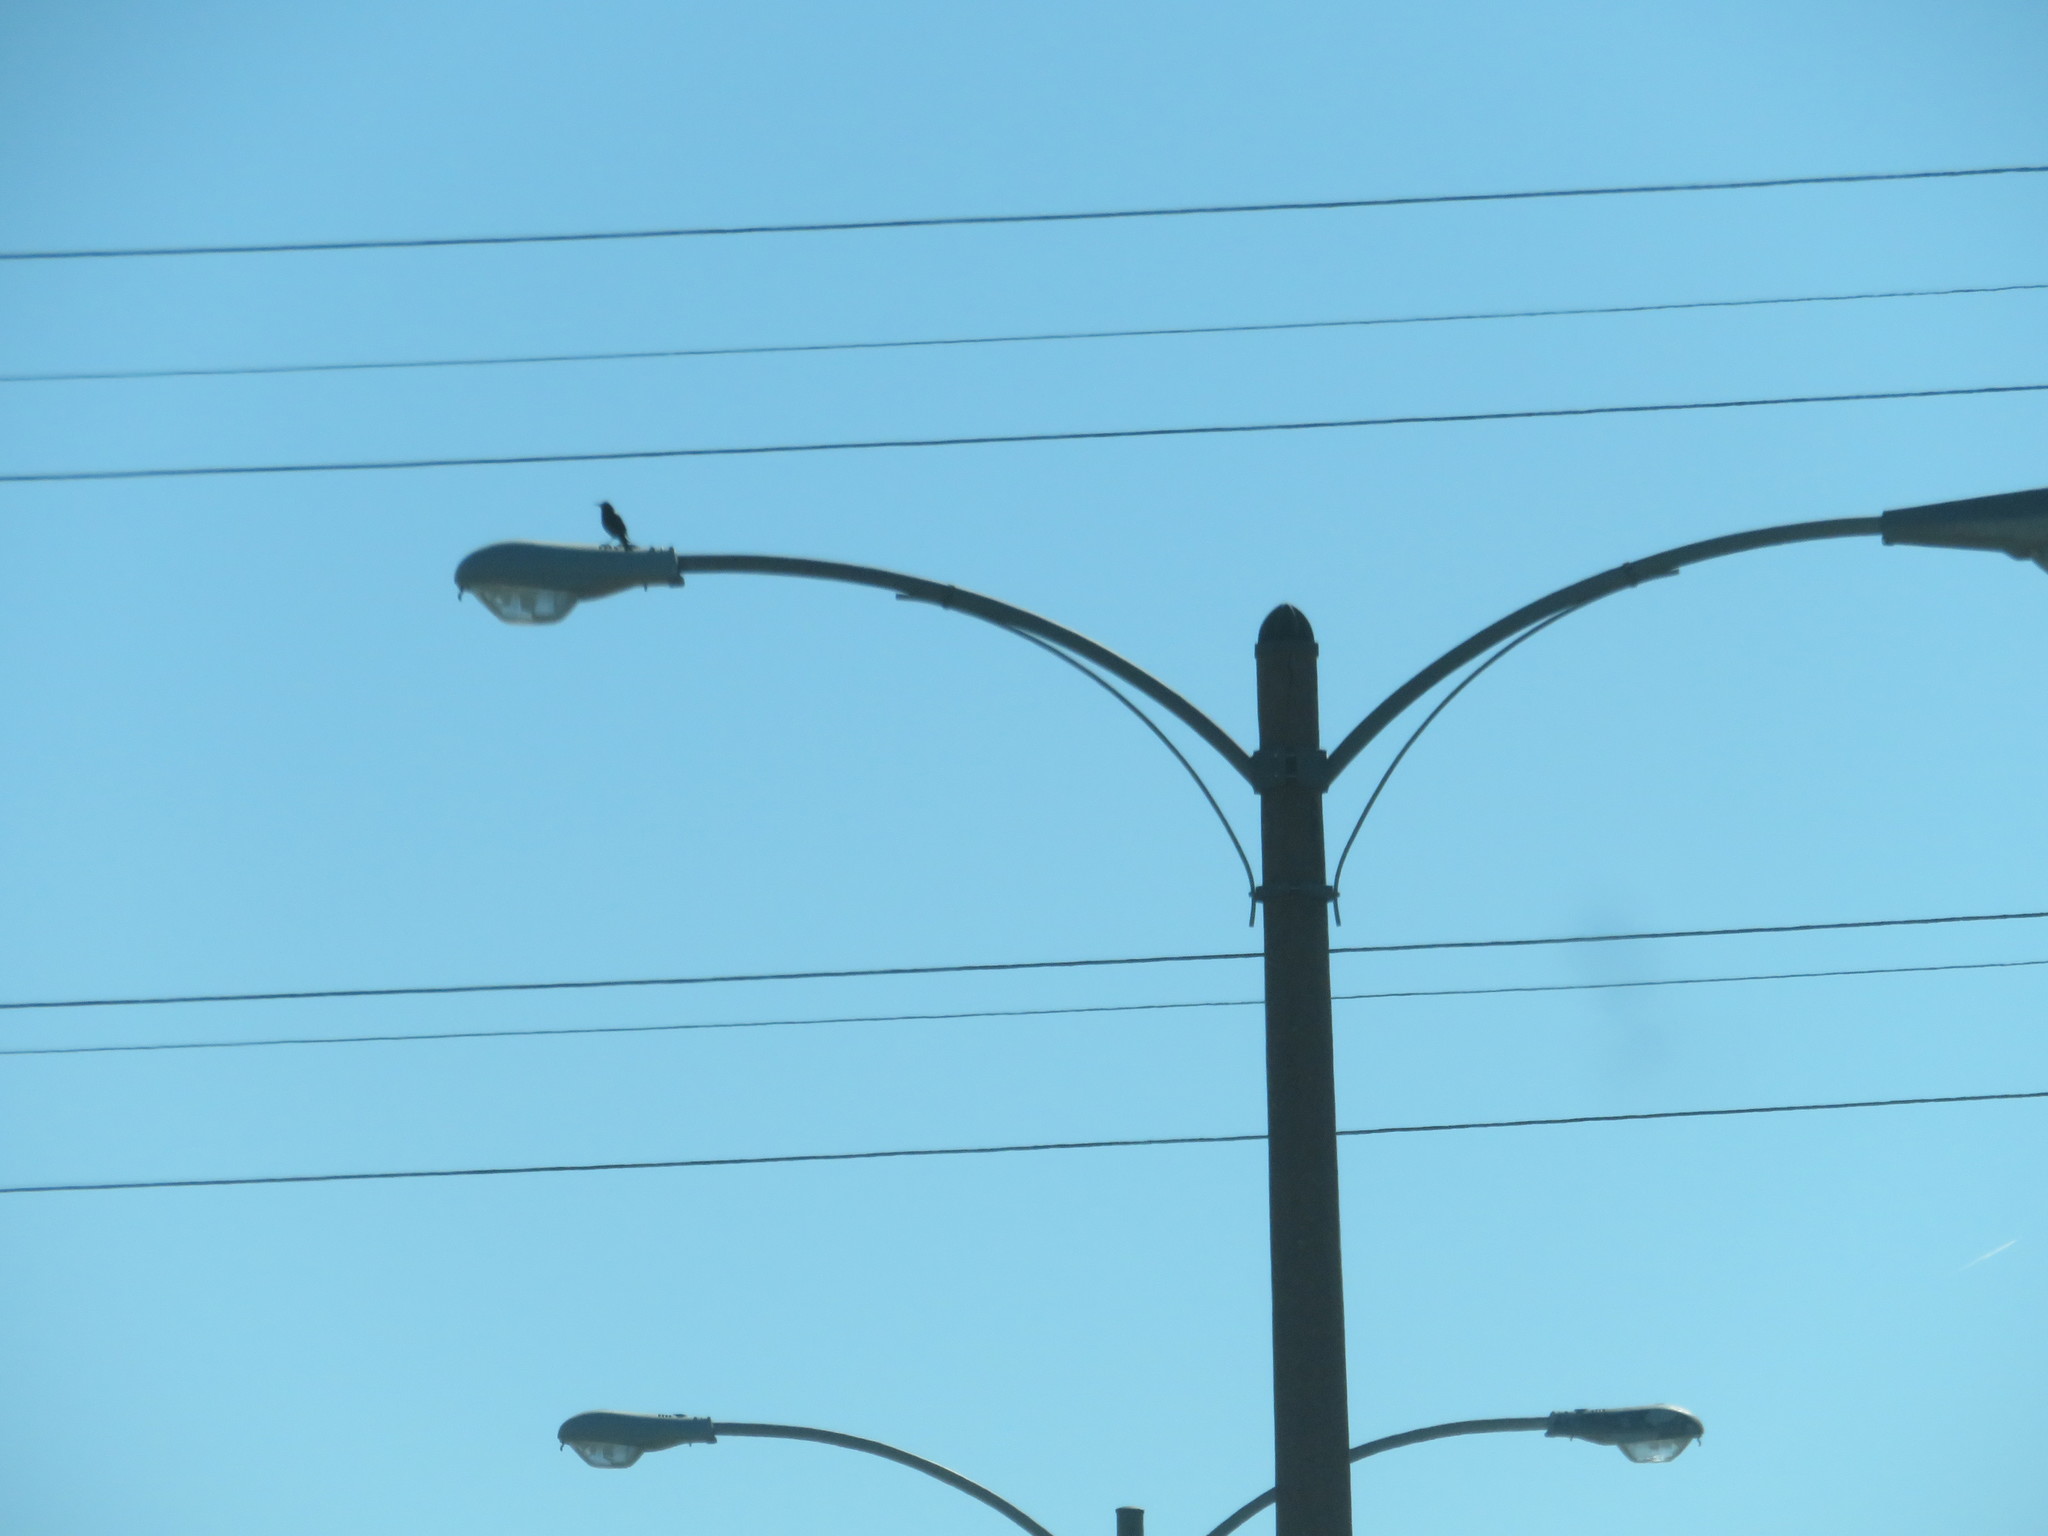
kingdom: Animalia
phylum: Chordata
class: Aves
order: Passeriformes
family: Sturnidae
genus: Sturnus
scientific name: Sturnus vulgaris
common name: Common starling
